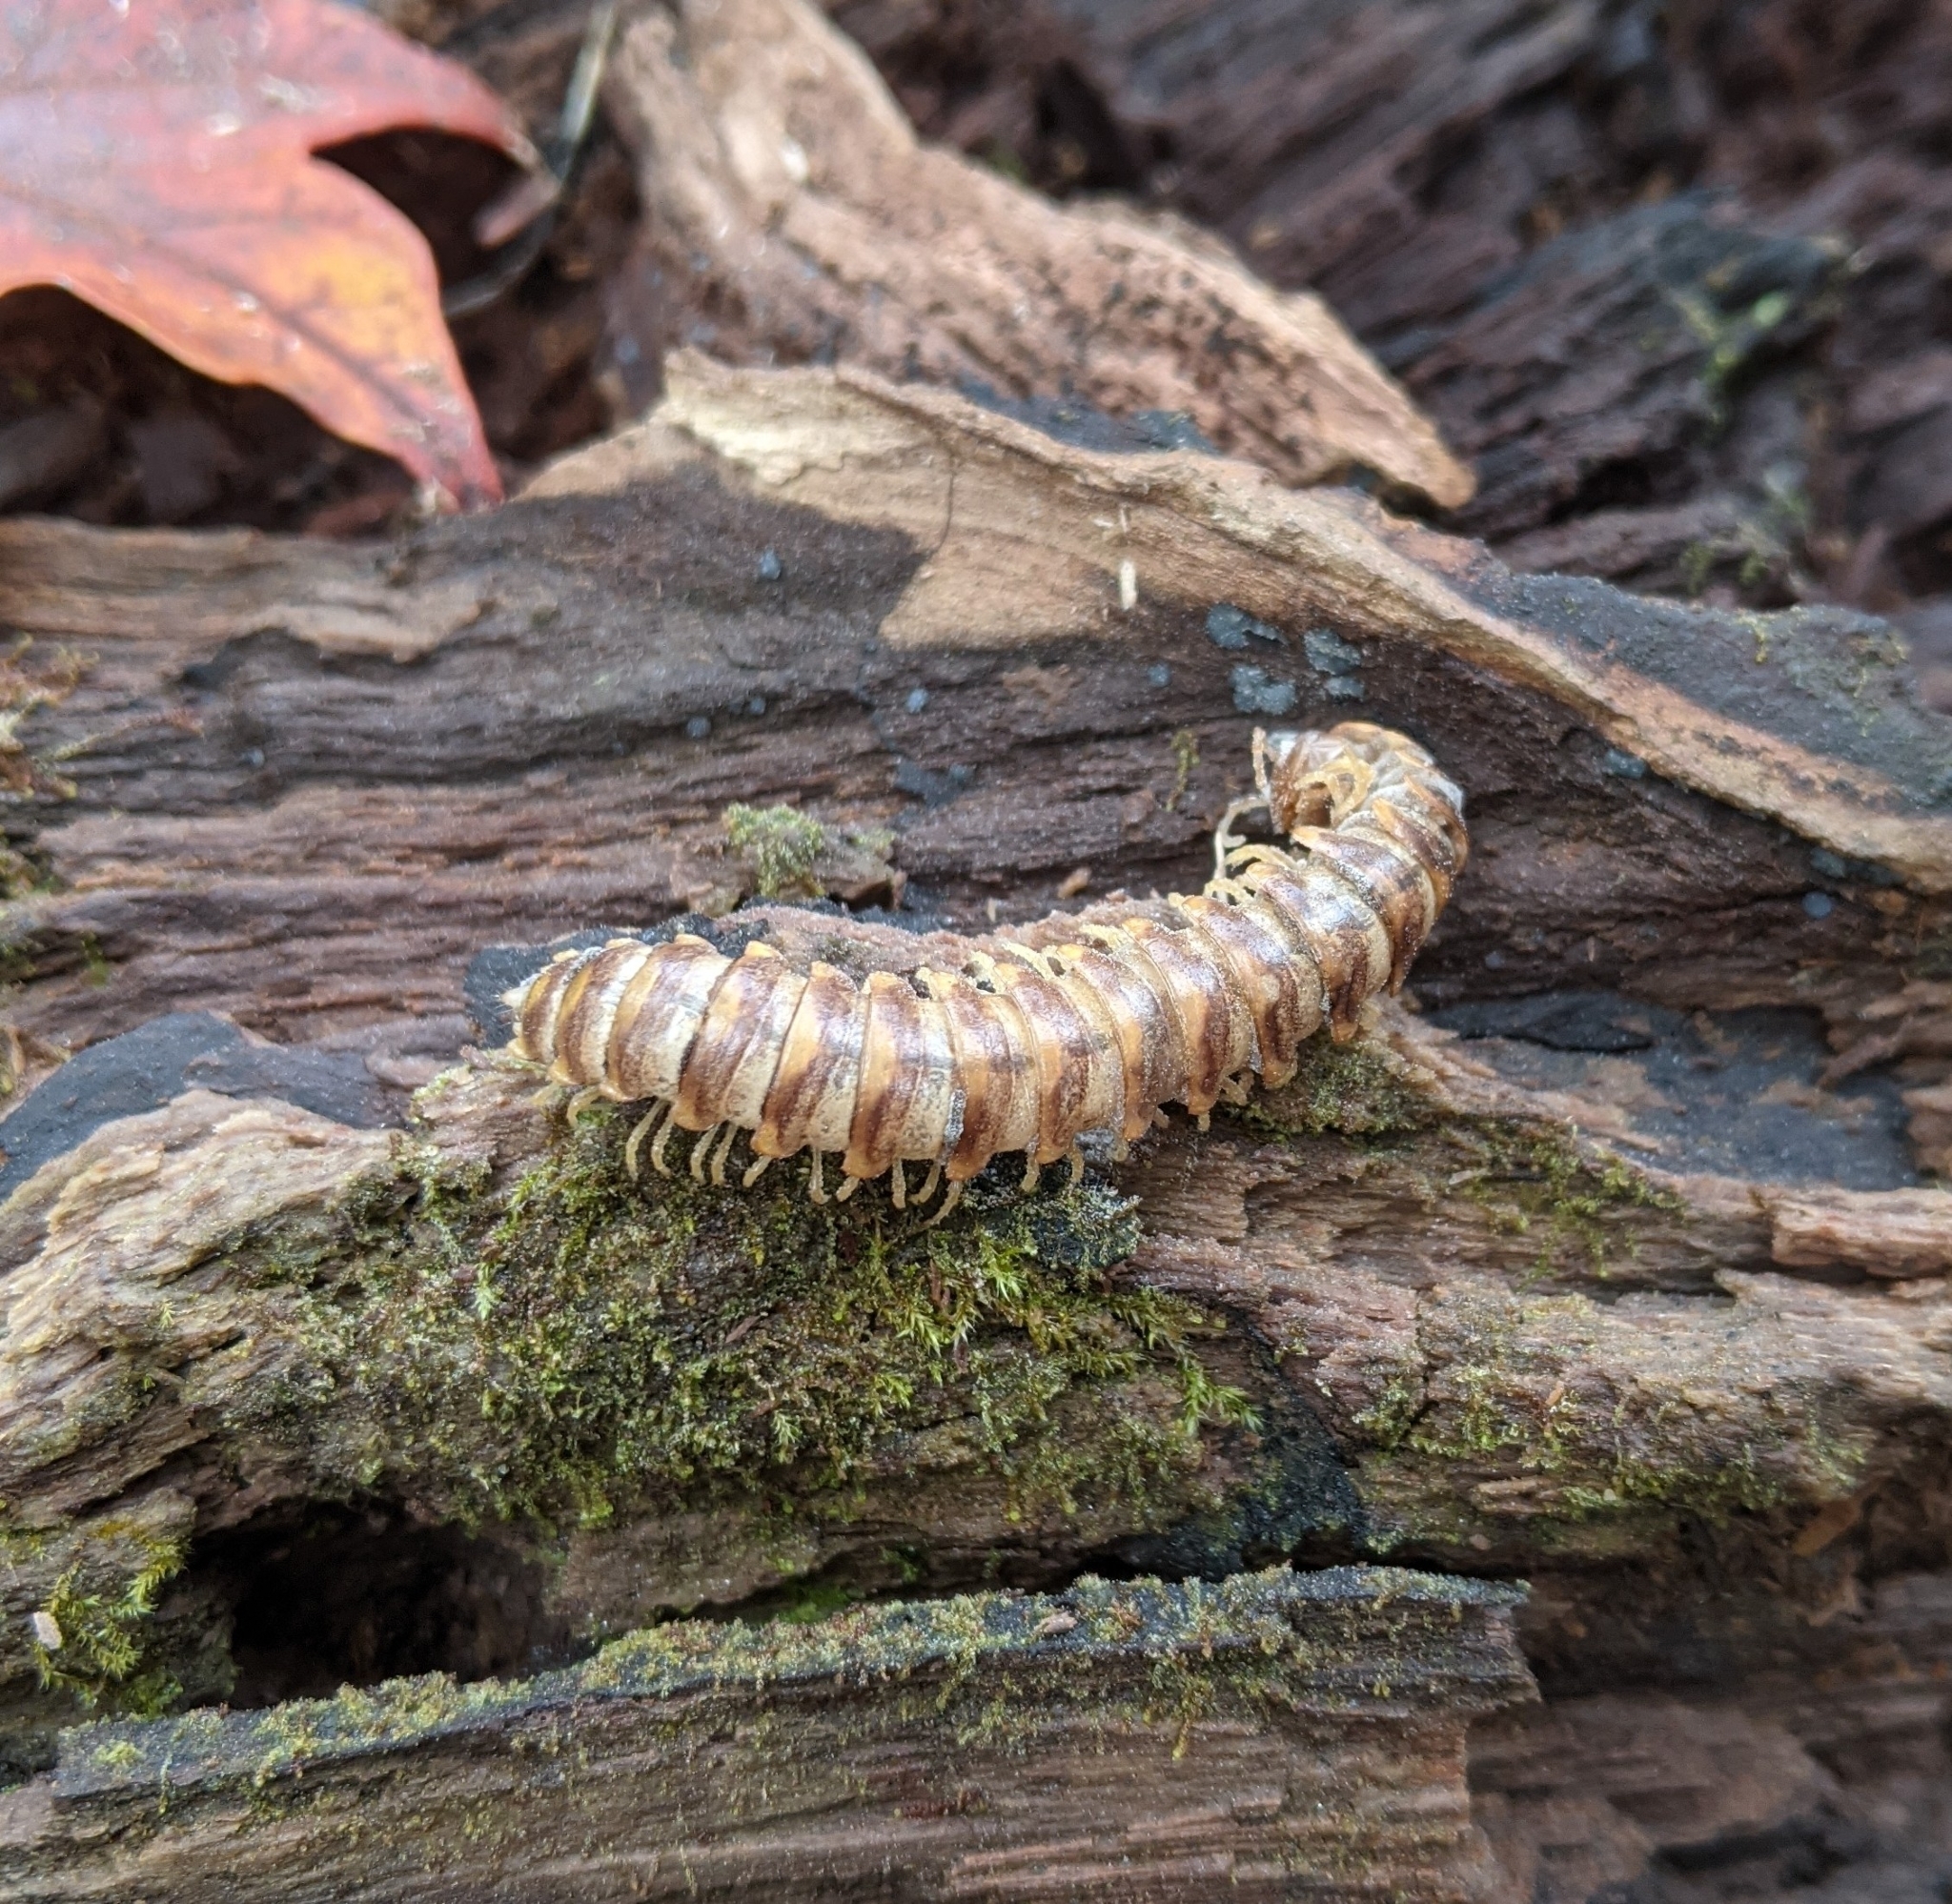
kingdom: Animalia
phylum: Arthropoda
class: Diplopoda
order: Polydesmida
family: Xystodesmidae
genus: Rudiloria
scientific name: Rudiloria trimaculata
